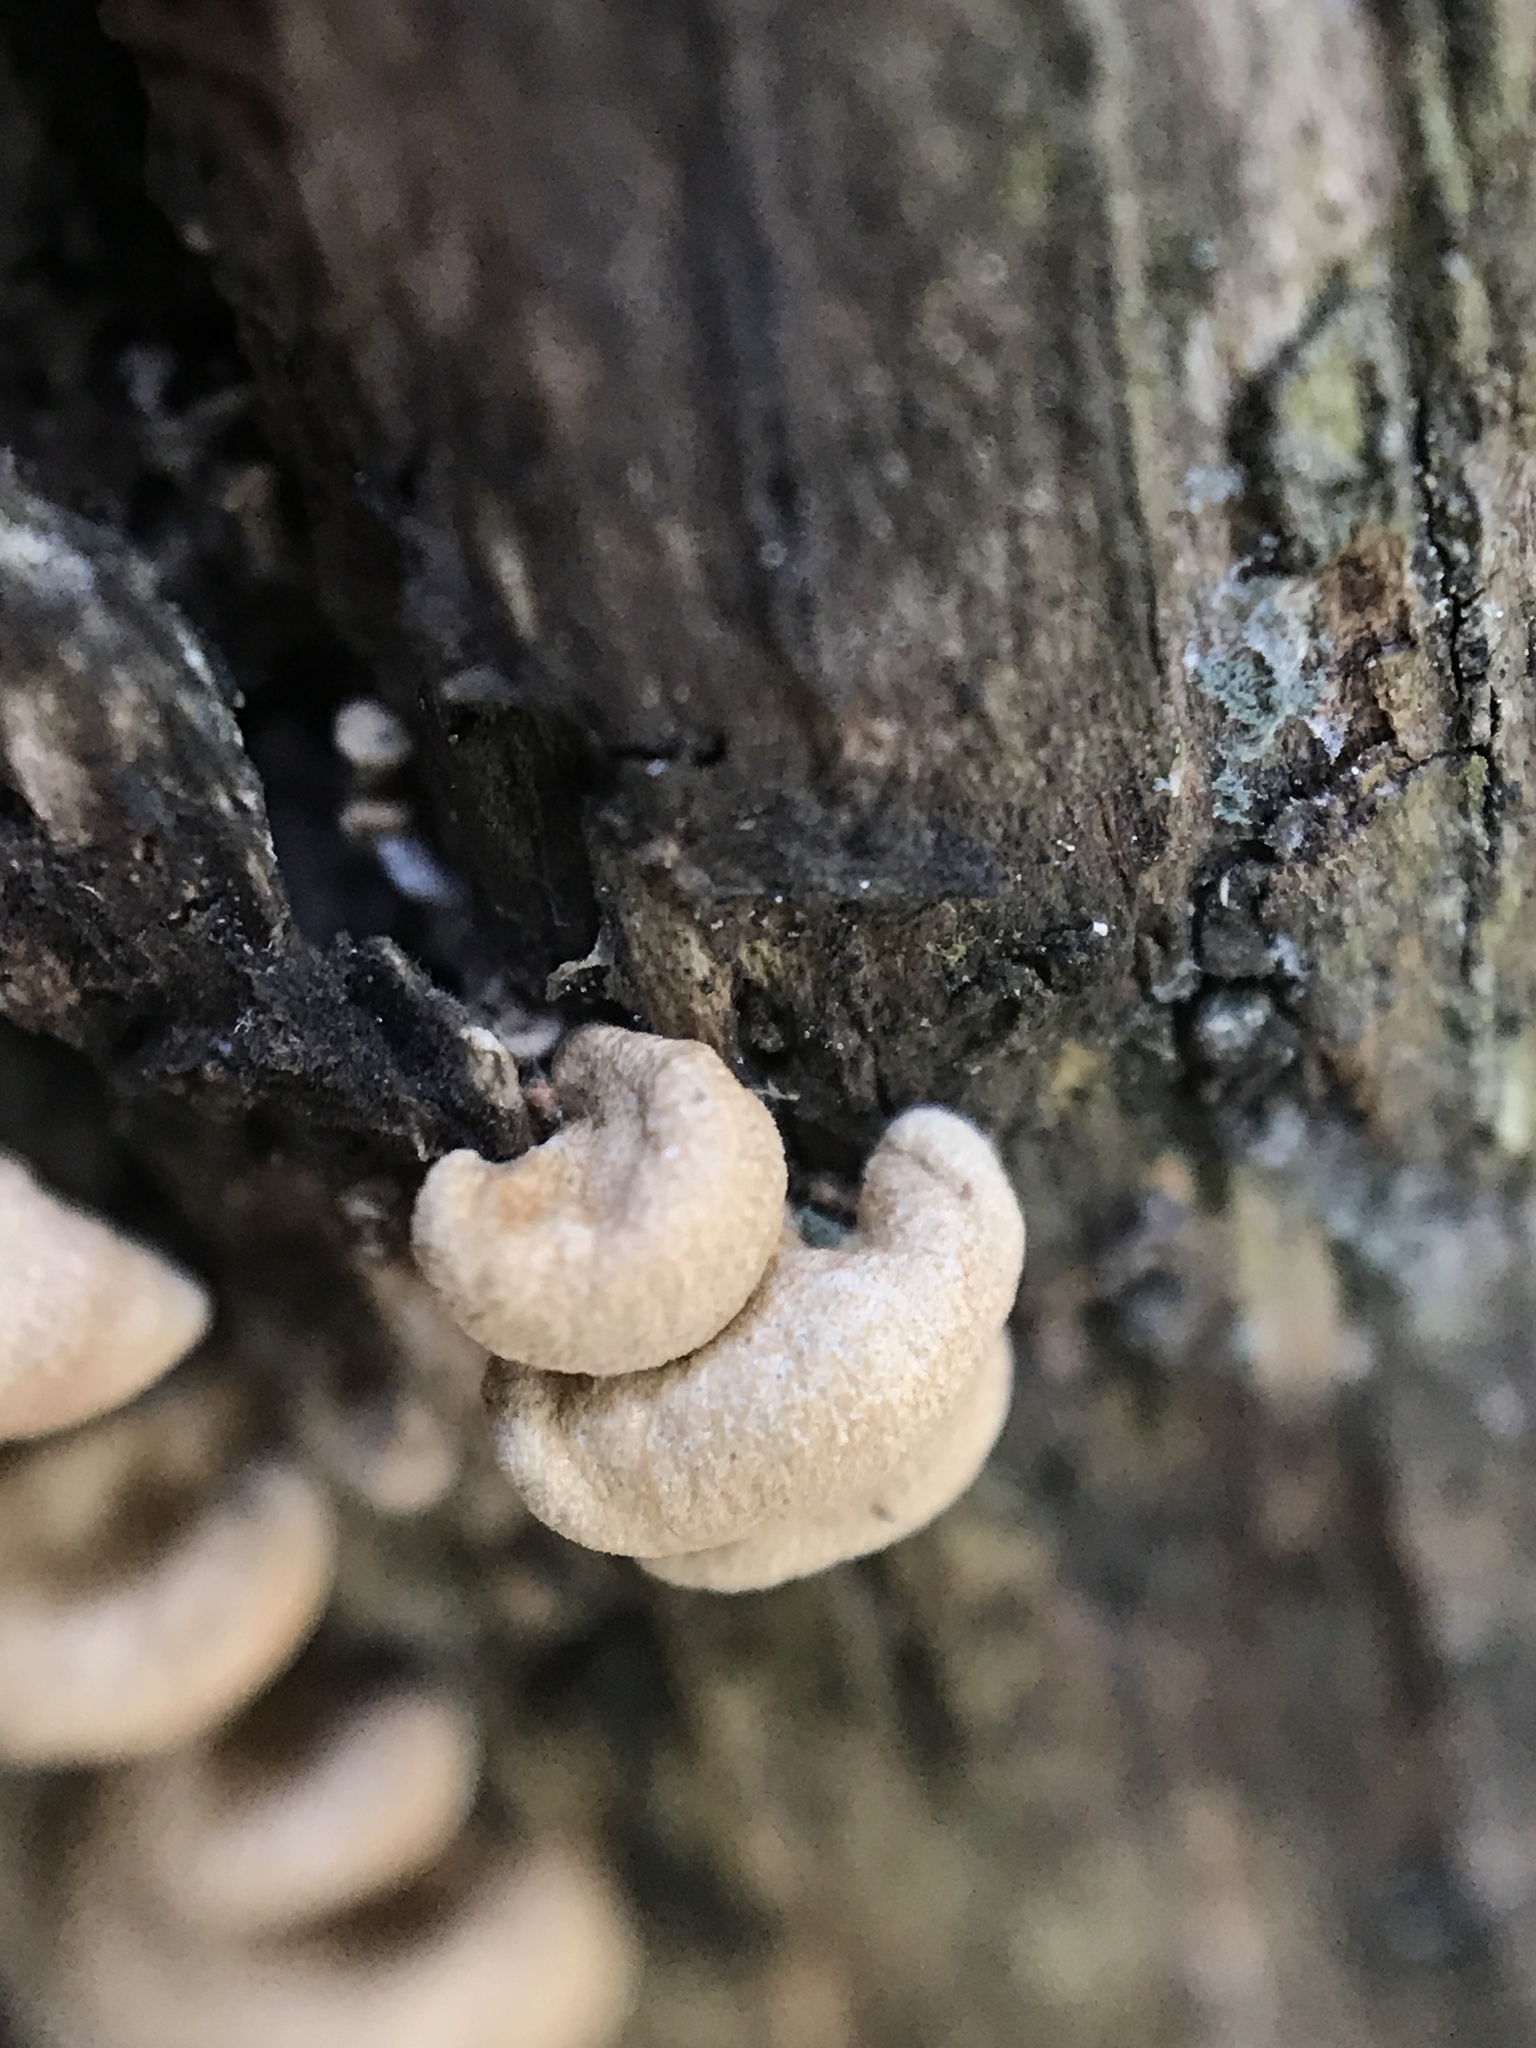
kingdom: Fungi
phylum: Basidiomycota
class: Agaricomycetes
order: Agaricales
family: Mycenaceae
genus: Panellus
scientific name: Panellus stipticus
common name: Bitter oysterling
